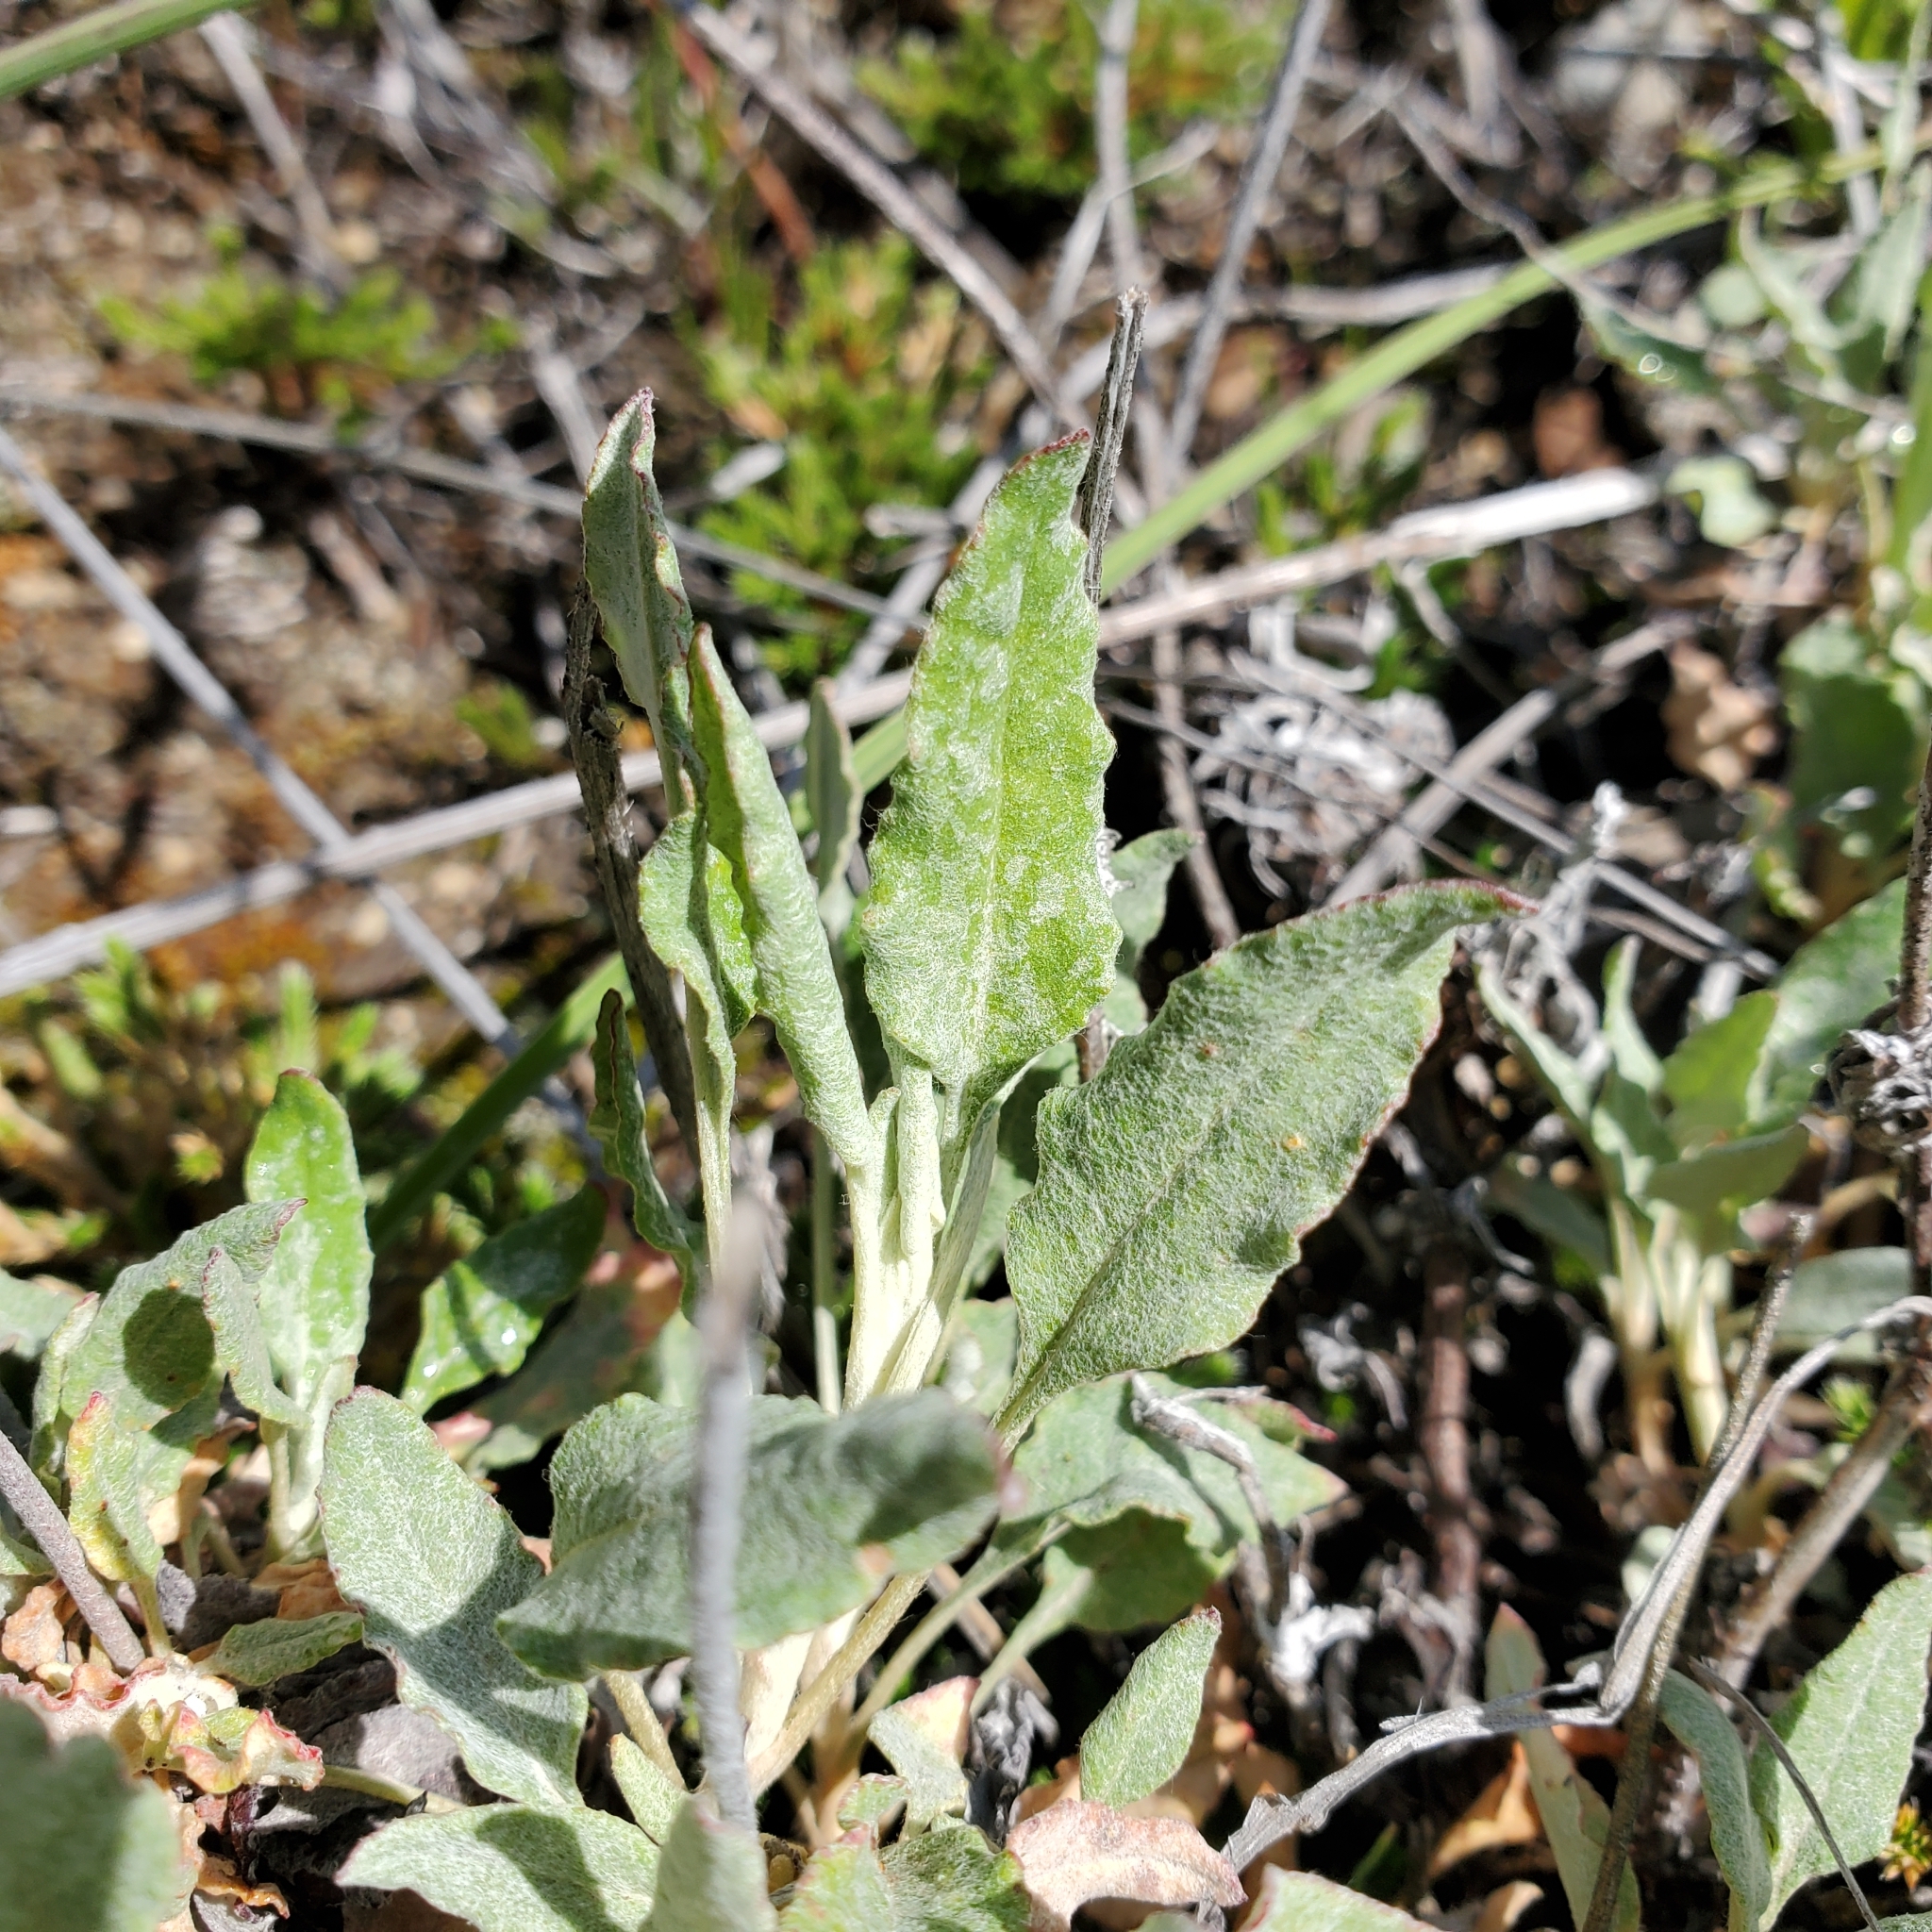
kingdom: Plantae
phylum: Tracheophyta
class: Magnoliopsida
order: Caryophyllales
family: Polygonaceae
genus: Eriogonum
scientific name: Eriogonum elongatum
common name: Long-stem wild buckwheat
